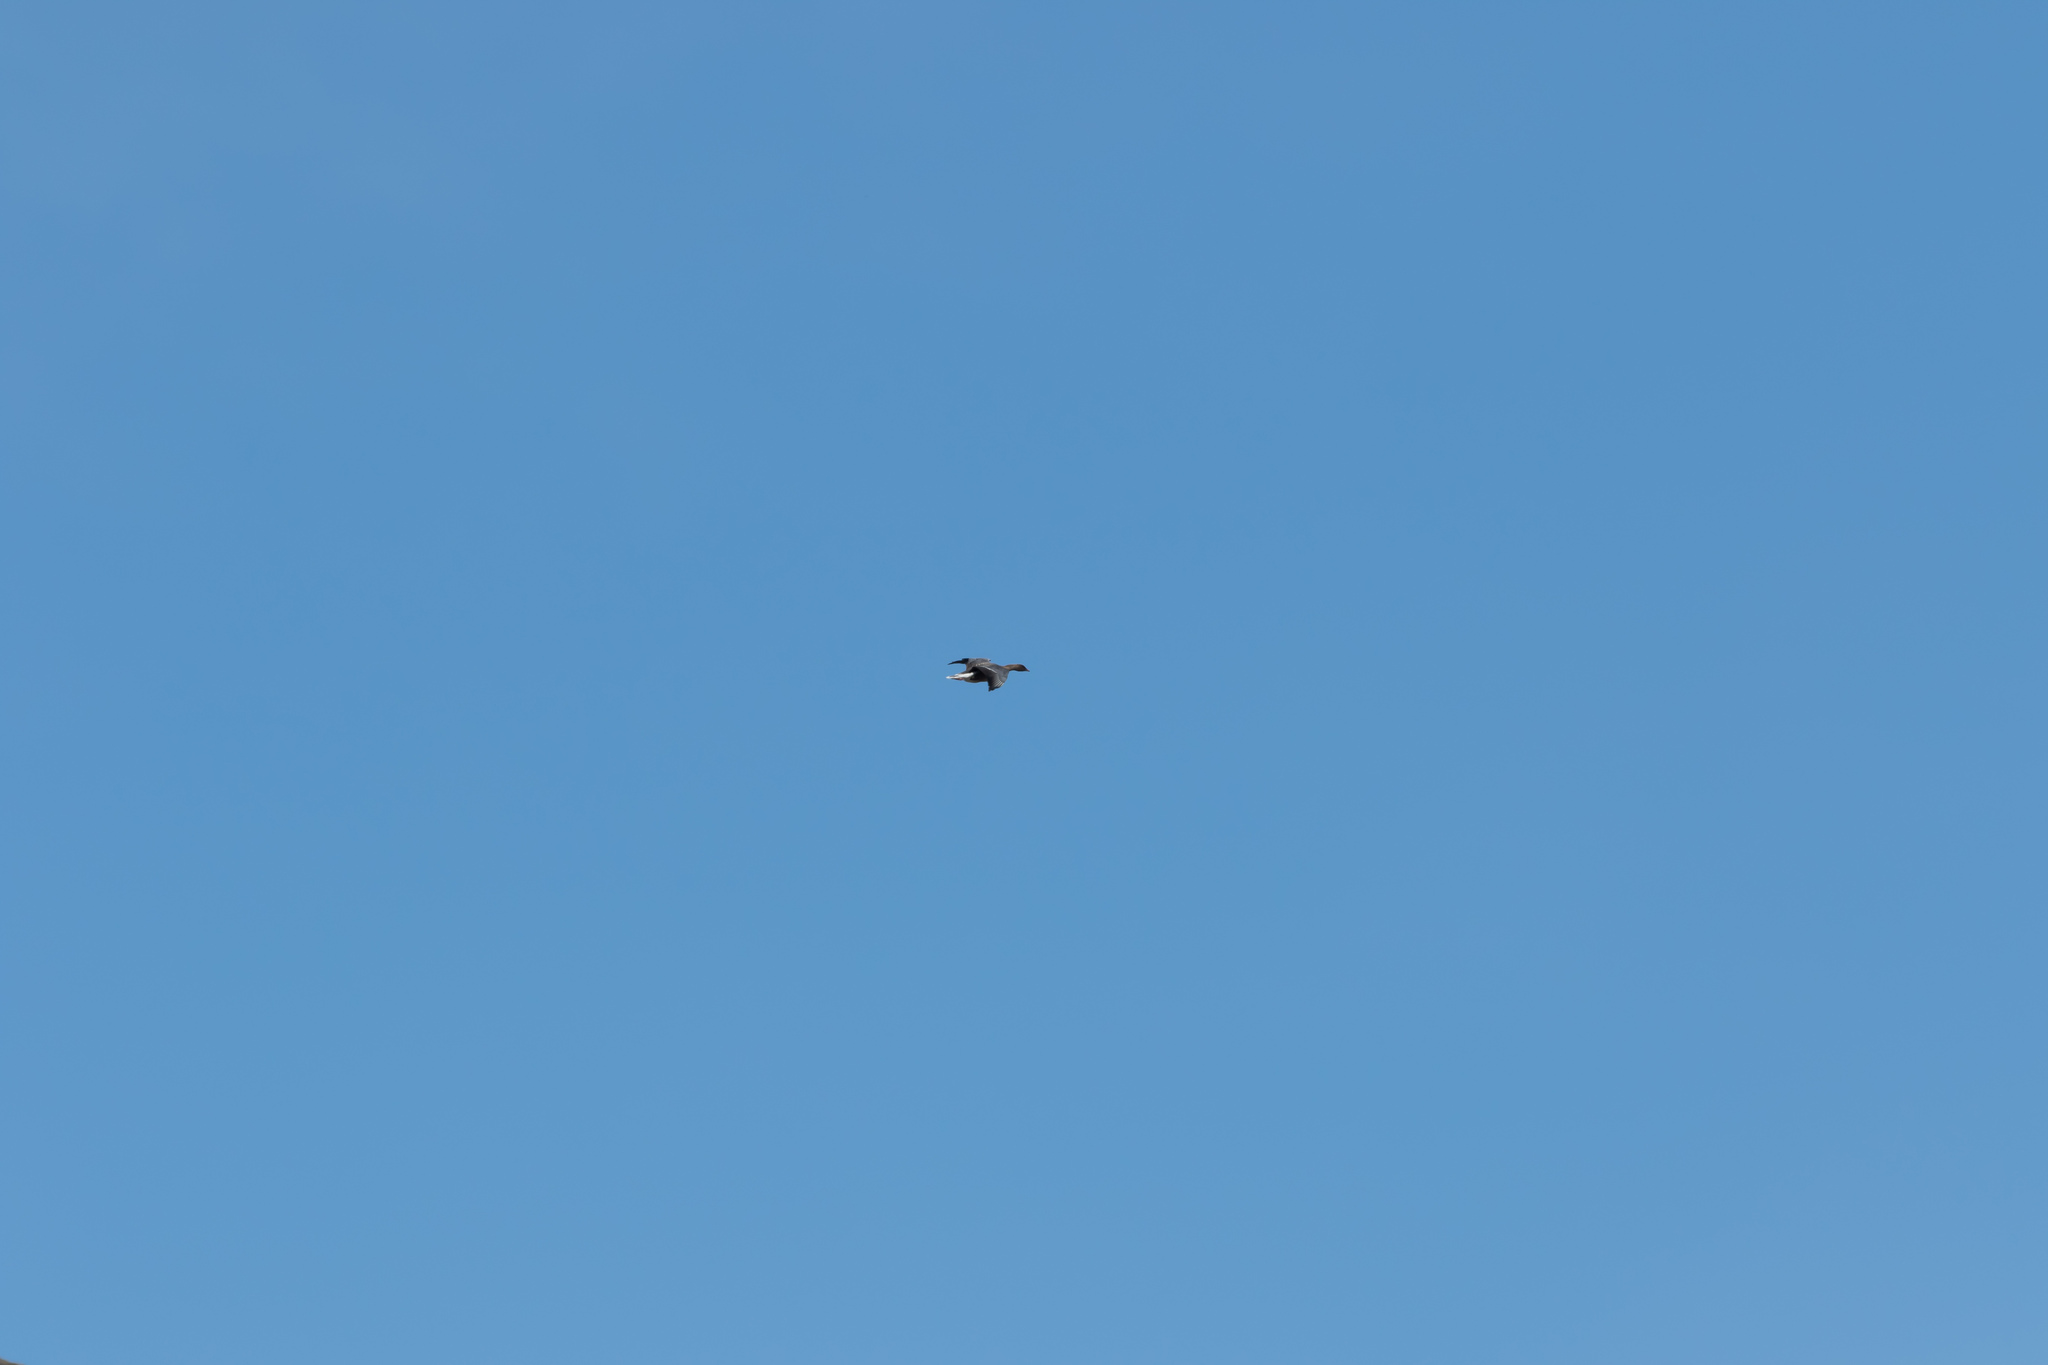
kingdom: Animalia
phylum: Chordata
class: Aves
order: Anseriformes
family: Anatidae
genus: Anser
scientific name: Anser brachyrhynchus
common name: Pink-footed goose
